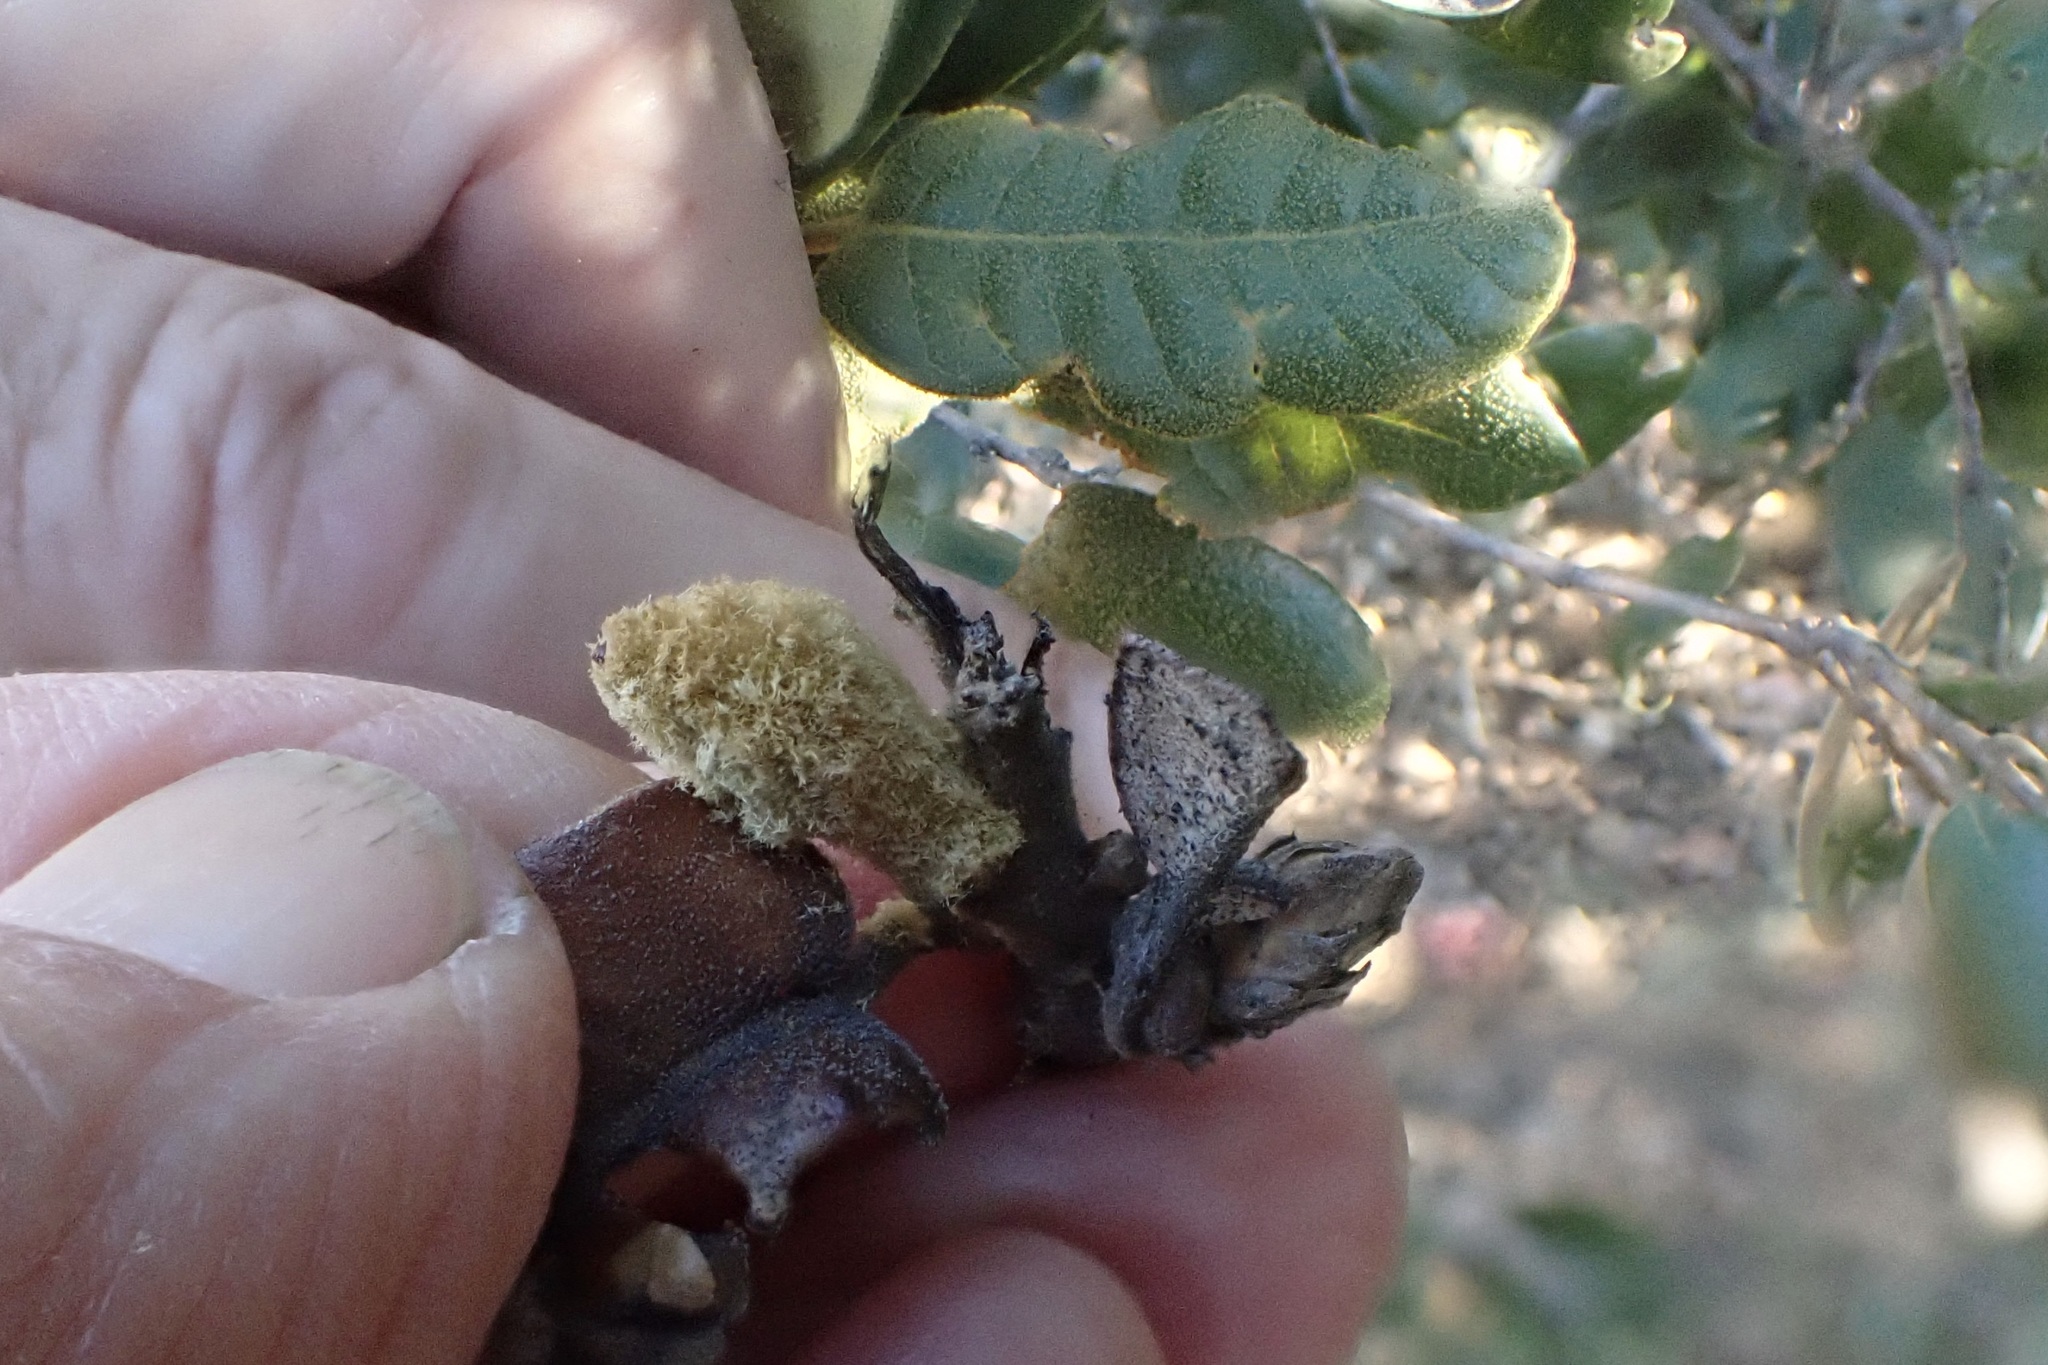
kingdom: Animalia
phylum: Arthropoda
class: Insecta
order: Hymenoptera
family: Cynipidae
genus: Heteroecus
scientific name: Heteroecus
